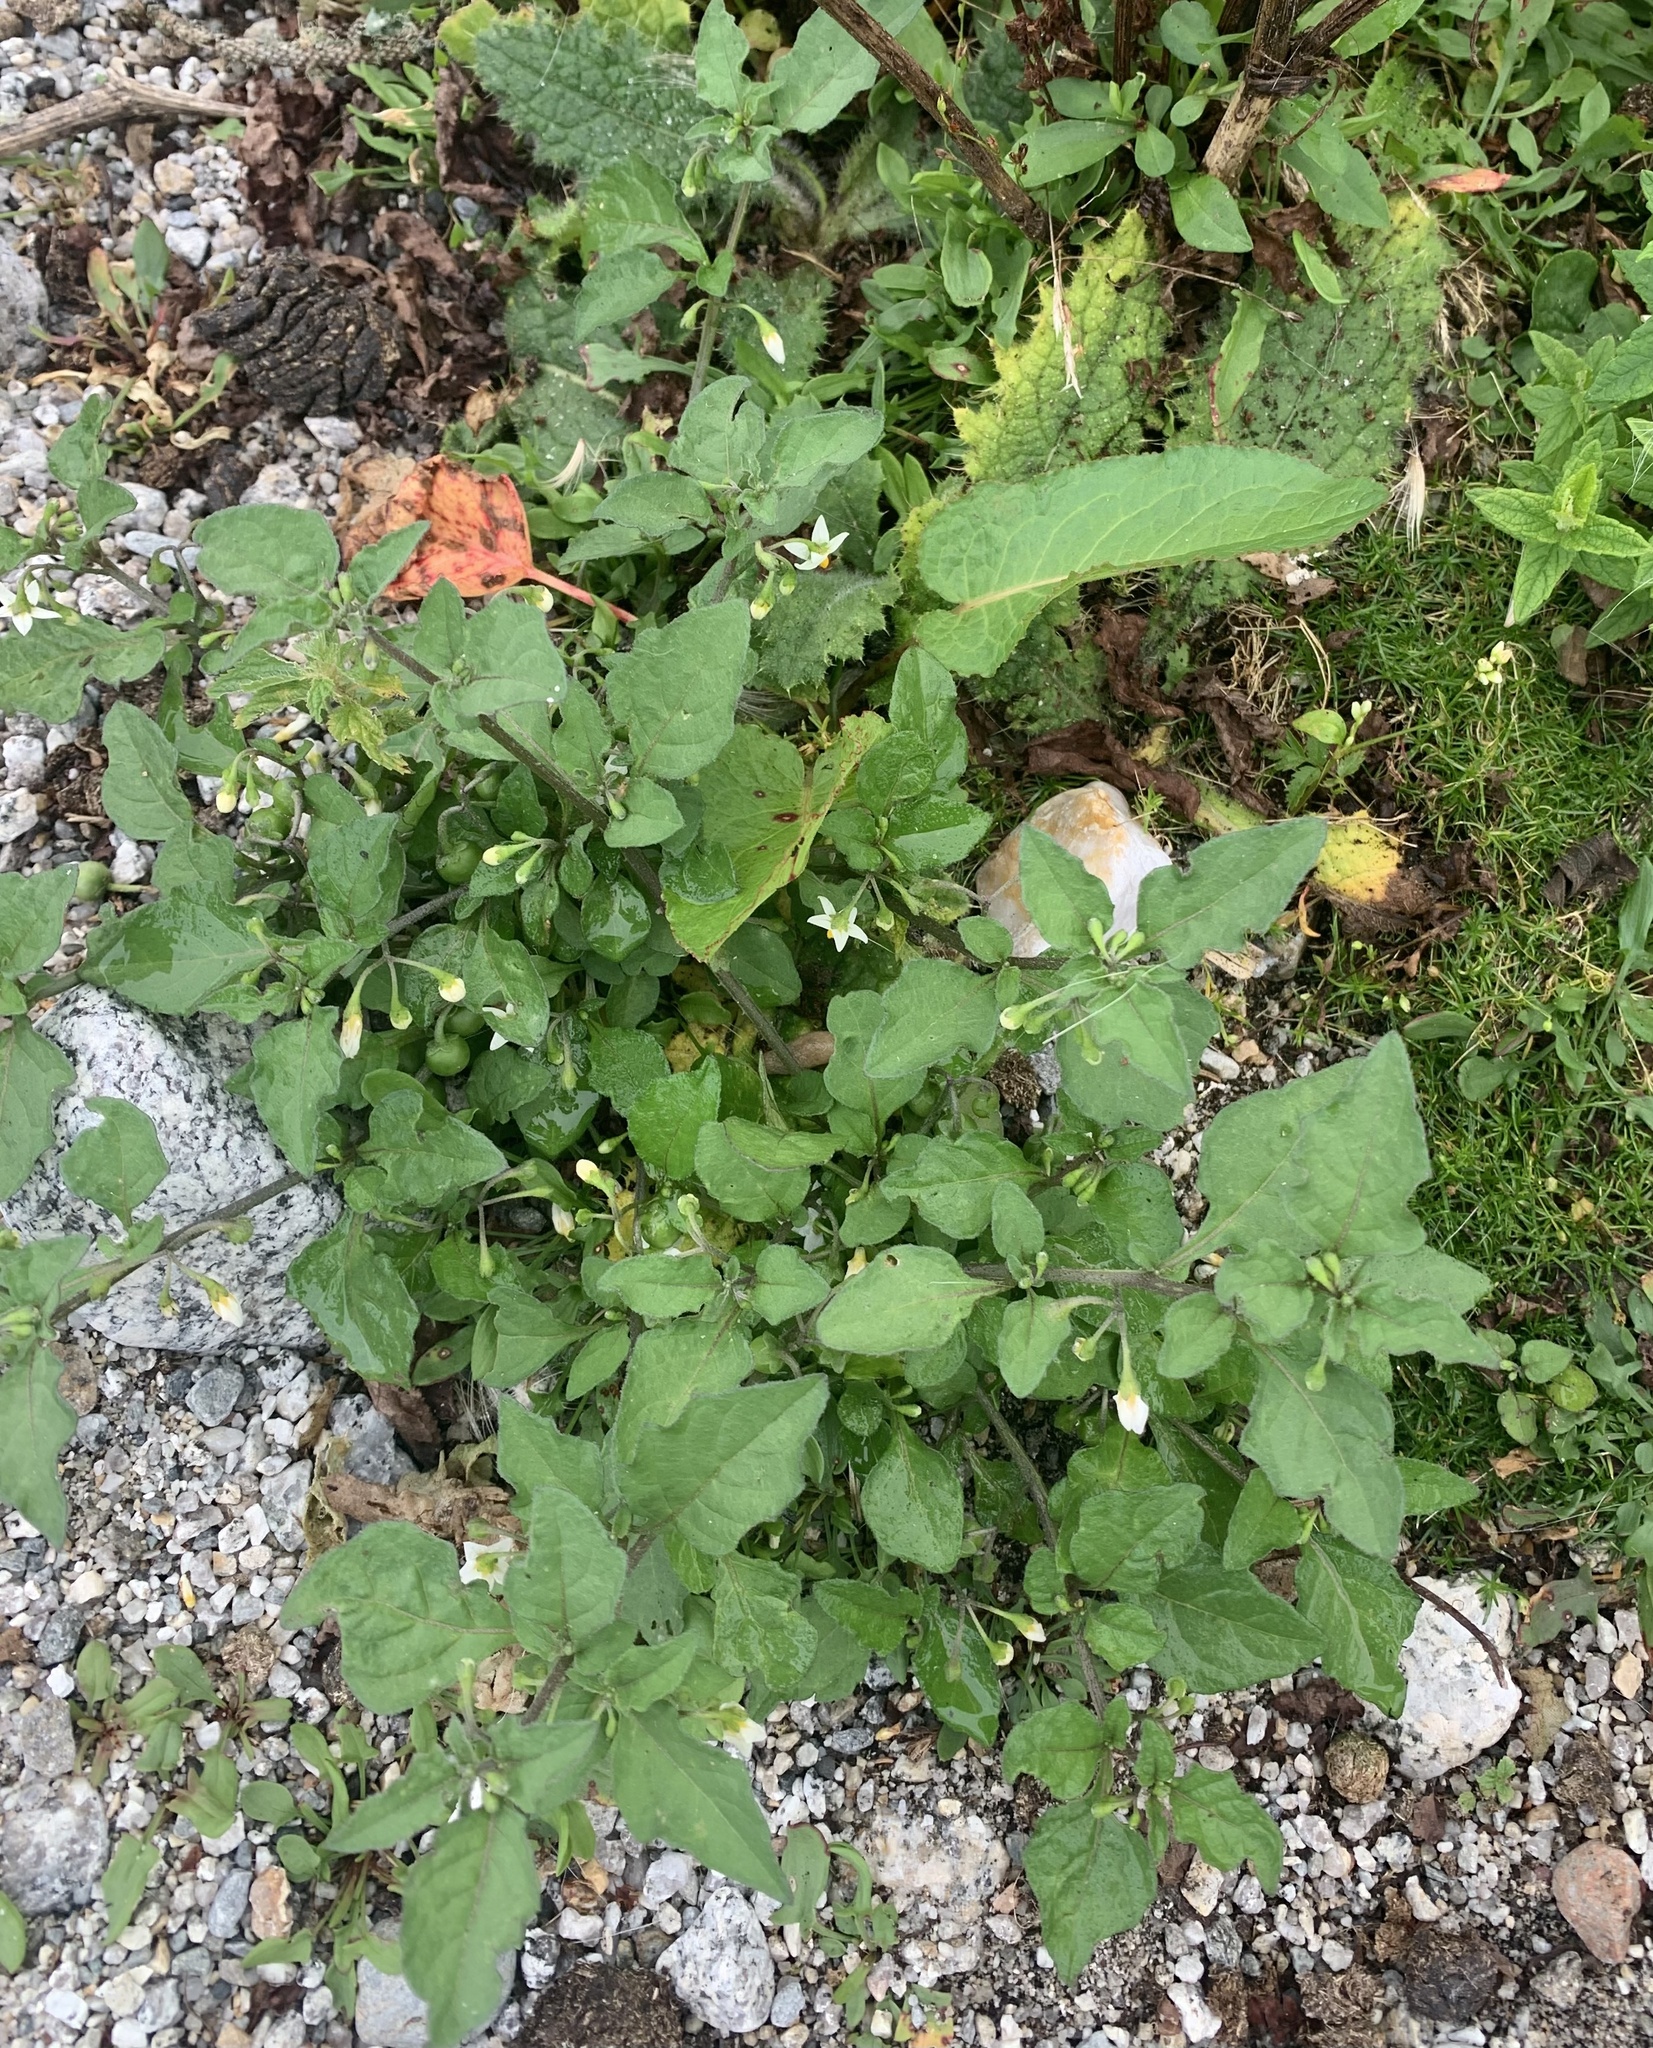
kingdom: Plantae
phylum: Tracheophyta
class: Magnoliopsida
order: Solanales
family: Solanaceae
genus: Solanum
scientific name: Solanum emulans
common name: Eastern black nightshade
